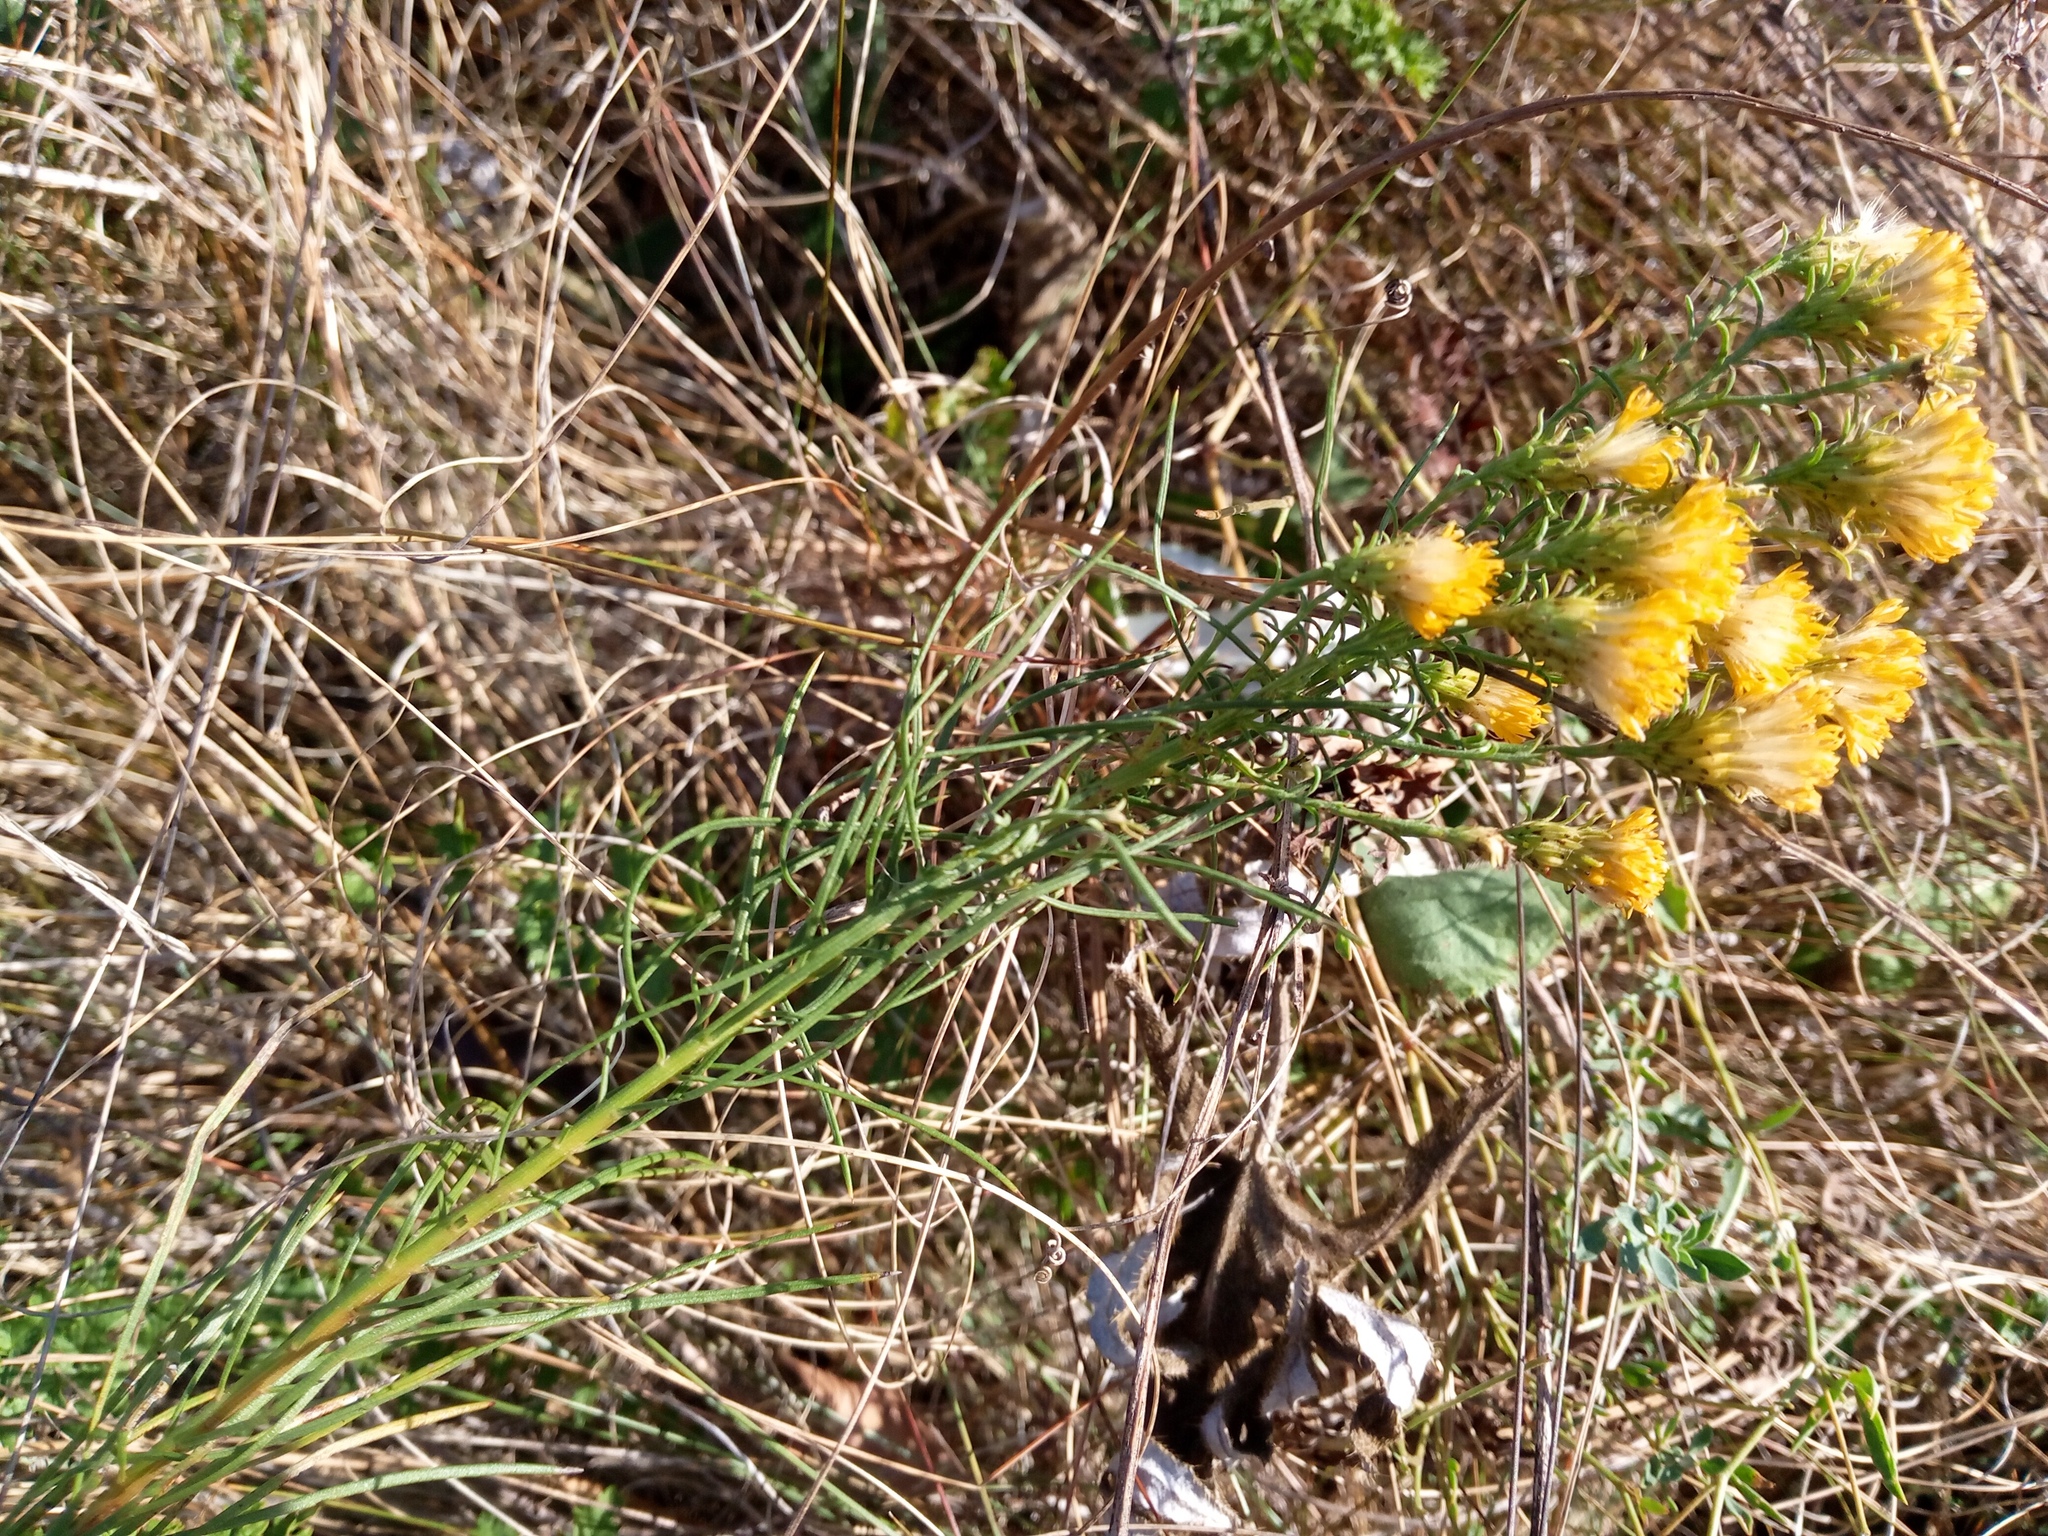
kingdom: Plantae
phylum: Tracheophyta
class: Magnoliopsida
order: Asterales
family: Asteraceae
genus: Galatella
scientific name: Galatella linosyris
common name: Goldilocks aster
